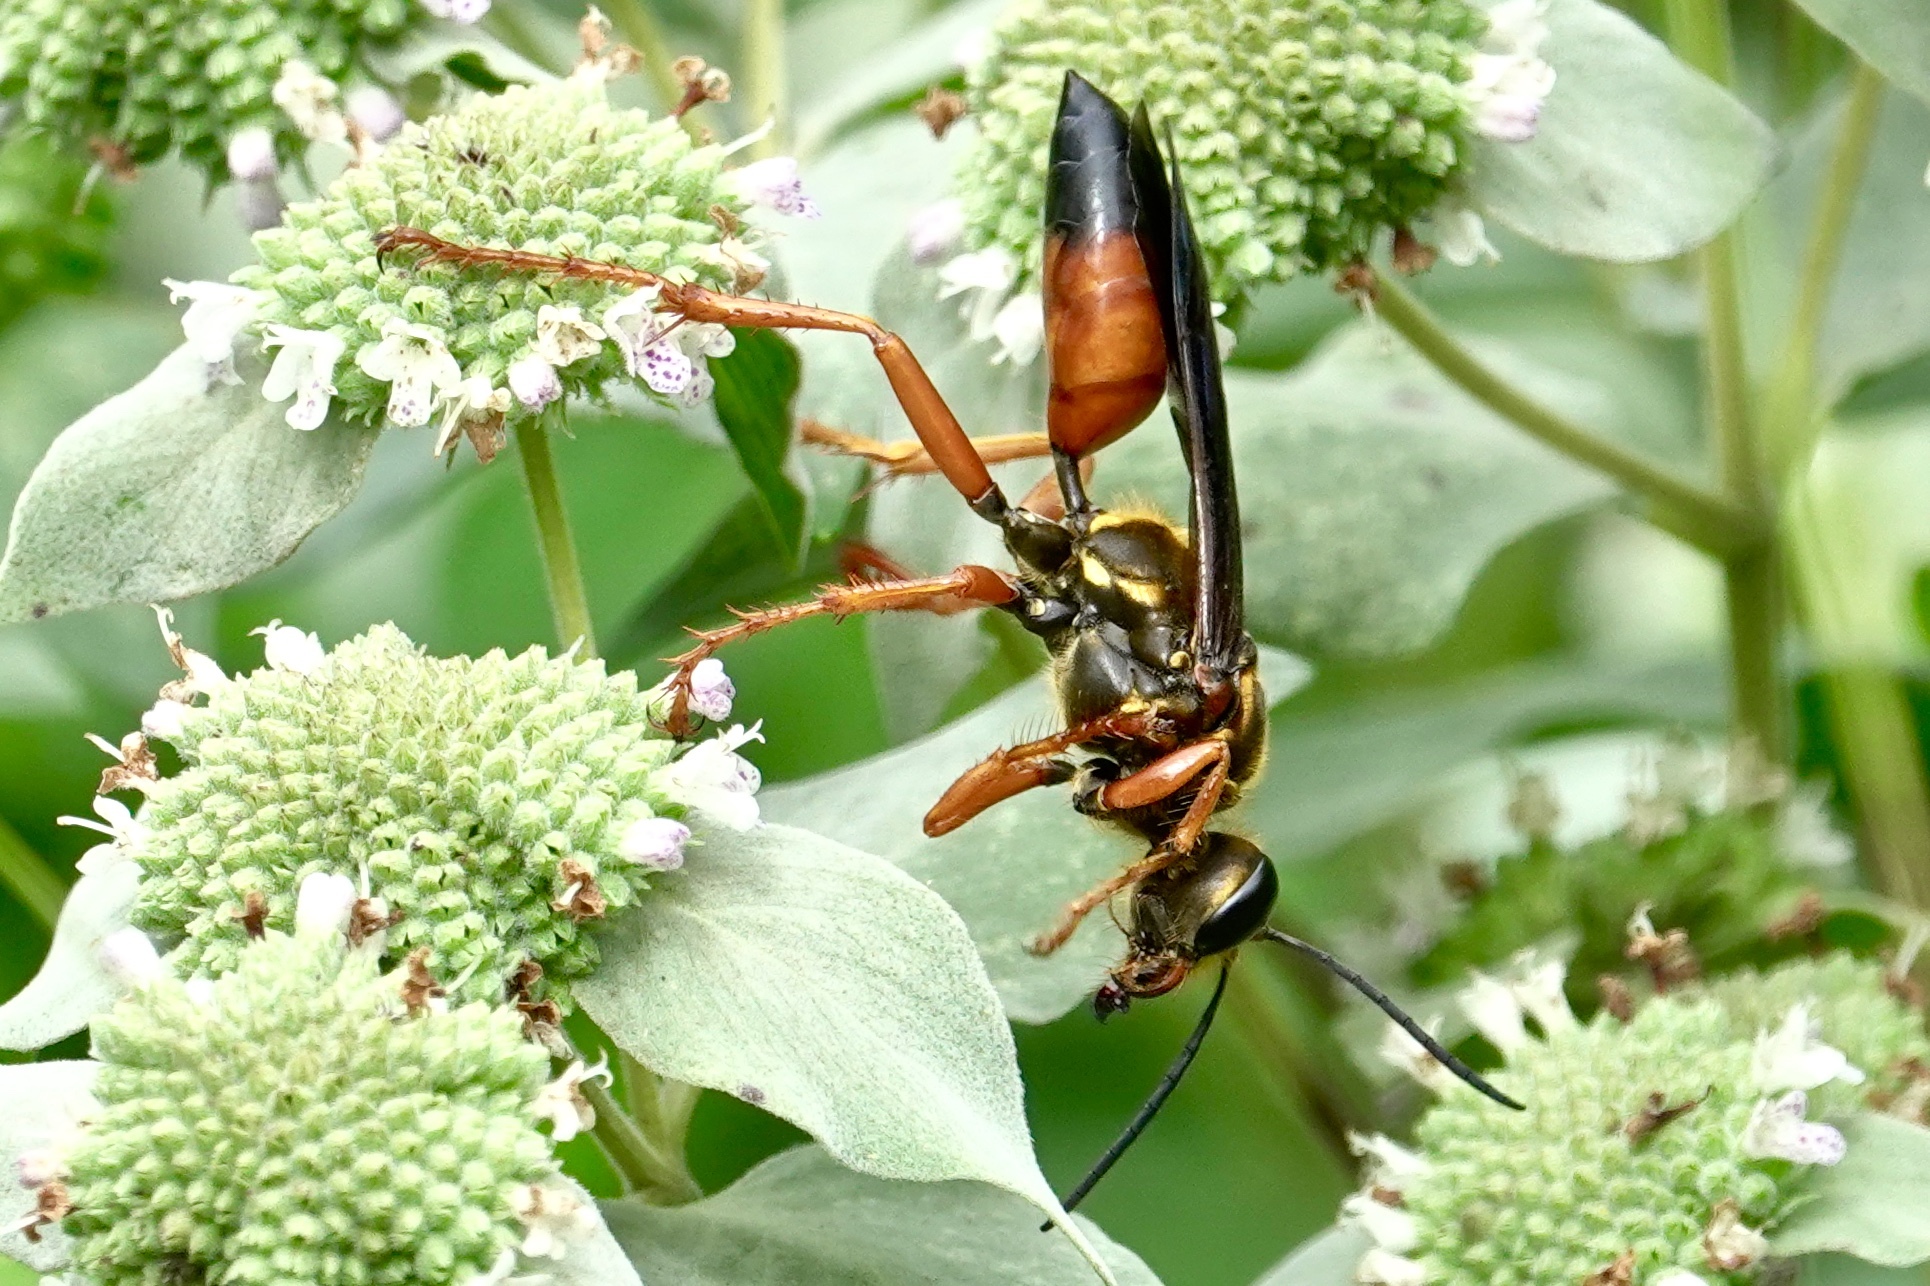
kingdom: Animalia
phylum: Arthropoda
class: Insecta
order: Hymenoptera
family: Sphecidae
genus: Sphex
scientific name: Sphex ichneumoneus
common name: Great golden digger wasp
